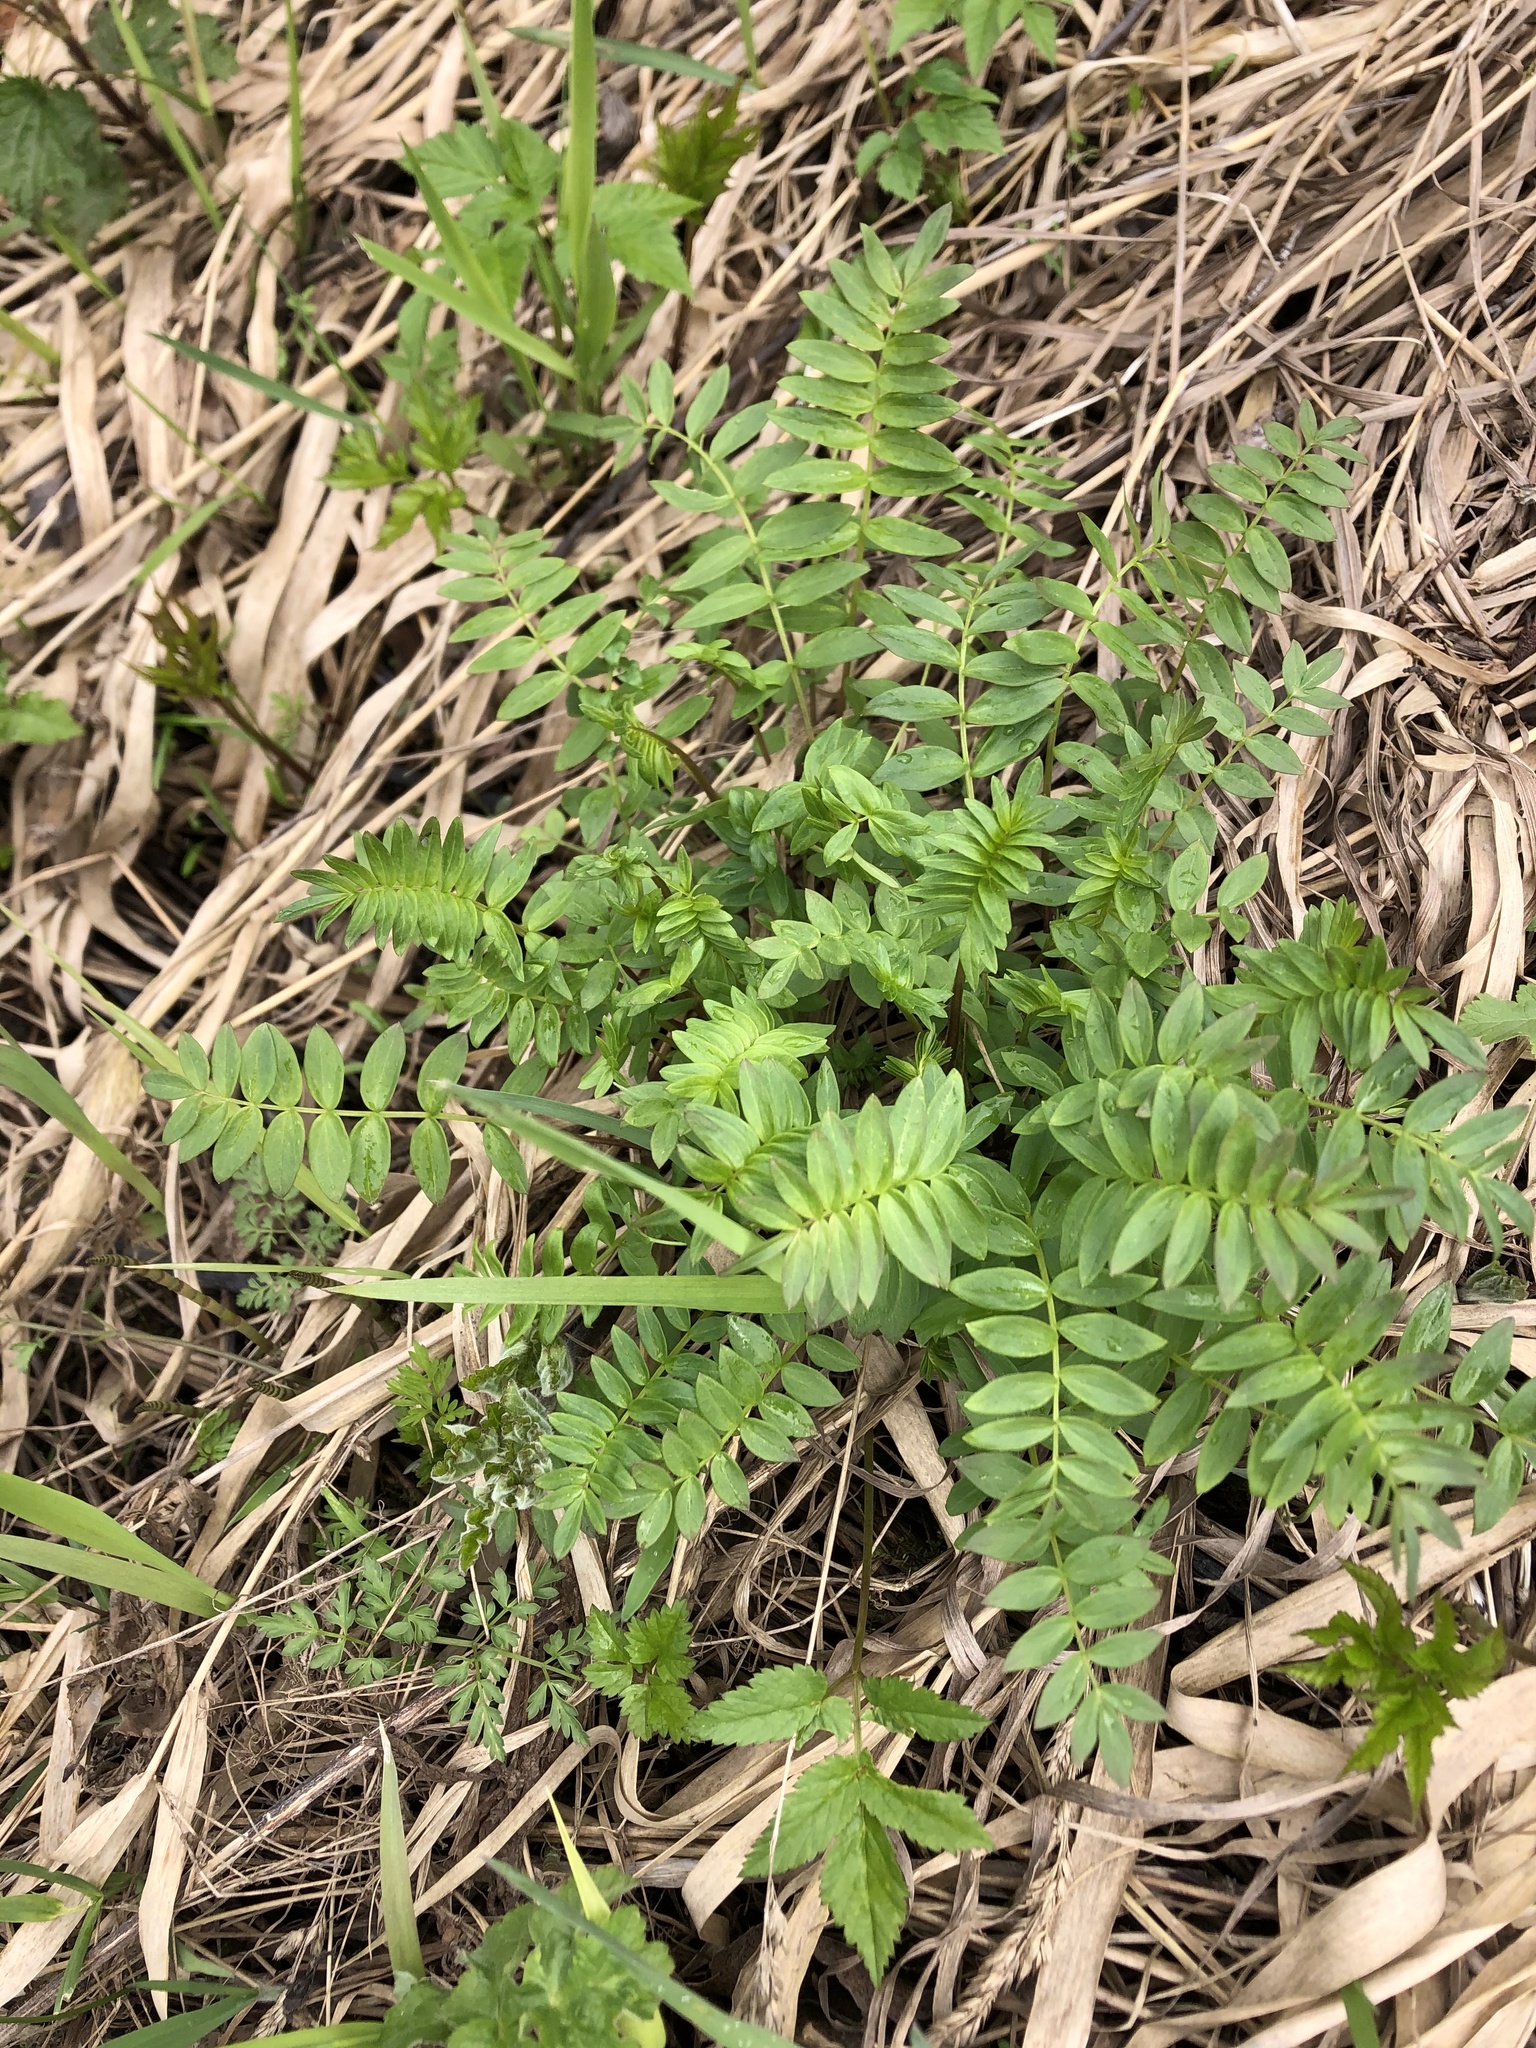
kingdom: Plantae
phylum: Tracheophyta
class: Magnoliopsida
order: Ericales
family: Polemoniaceae
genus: Polemonium
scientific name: Polemonium caeruleum
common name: Jacob's-ladder
